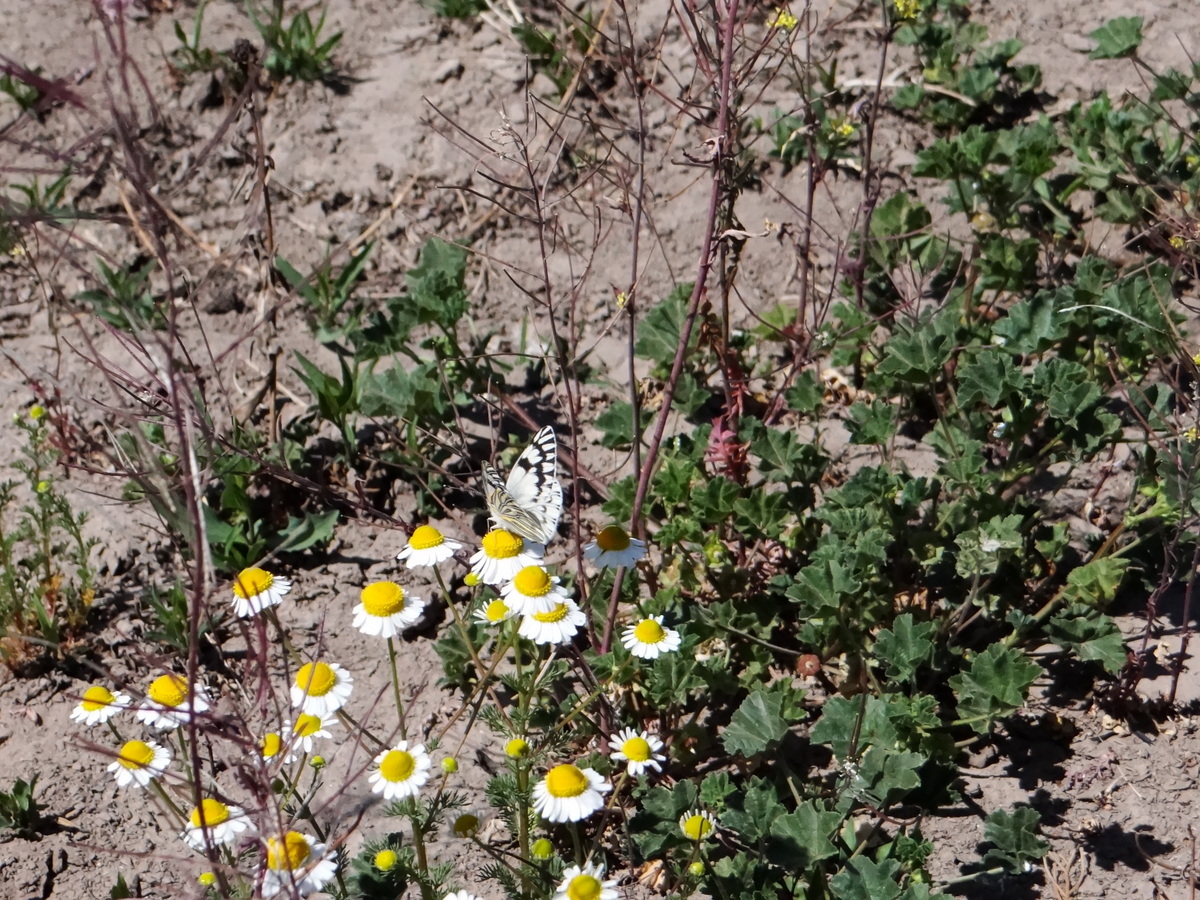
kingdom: Animalia
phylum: Arthropoda
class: Insecta
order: Lepidoptera
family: Pieridae
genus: Tatochila
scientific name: Tatochila mercedis
